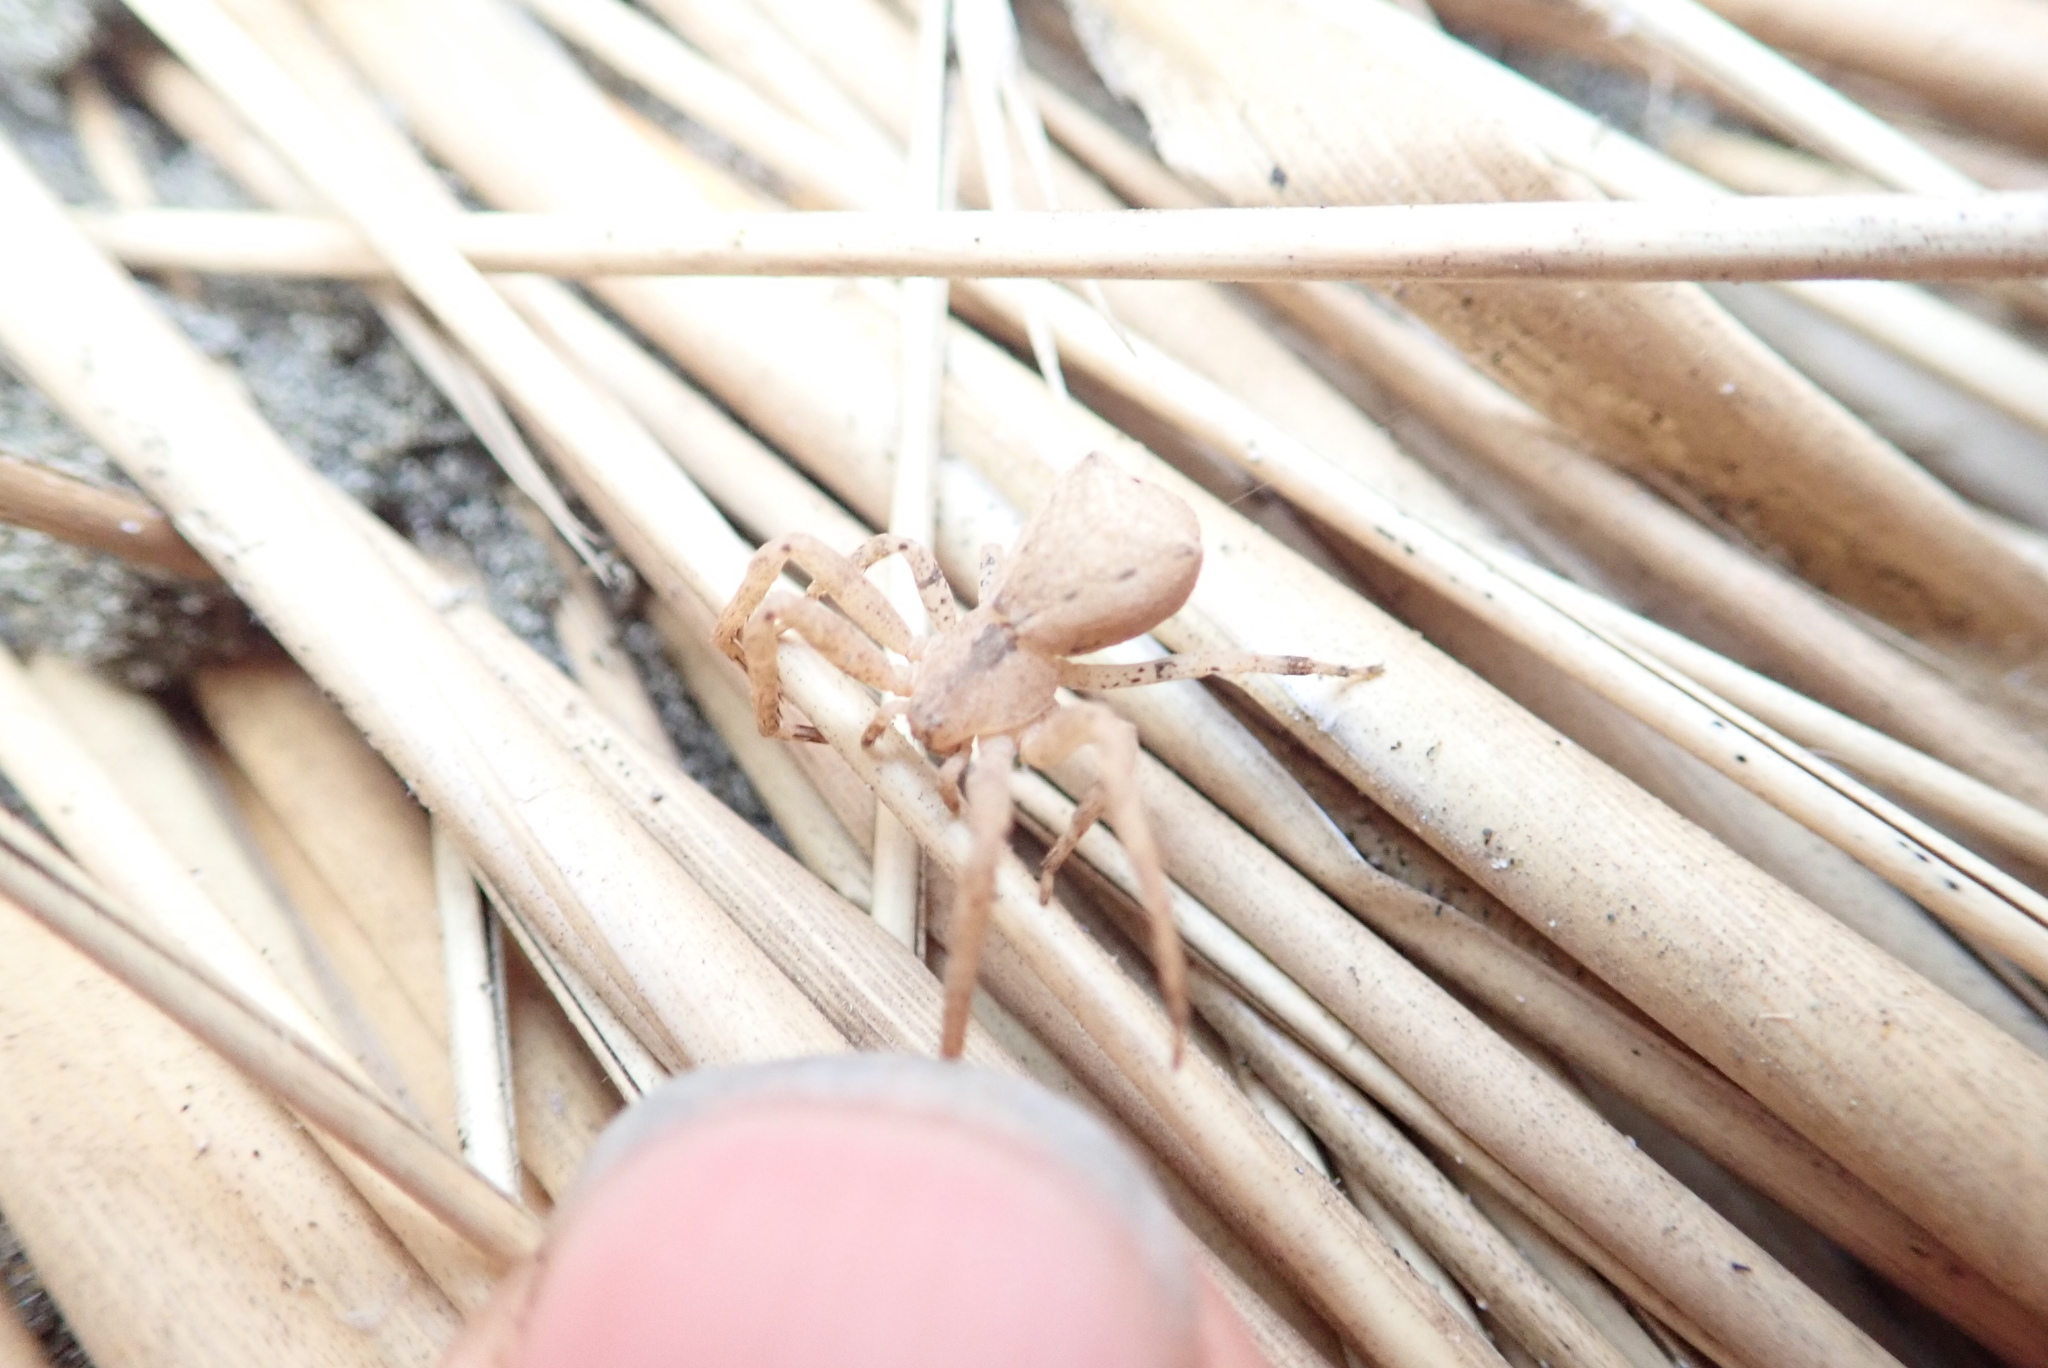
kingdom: Animalia
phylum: Arthropoda
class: Arachnida
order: Araneae
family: Thomisidae
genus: Sidymella
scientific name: Sidymella trapezia
